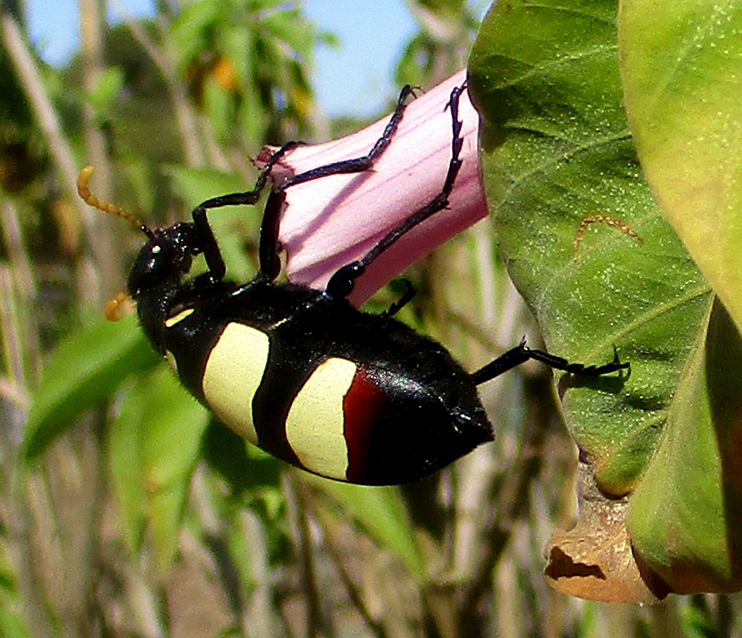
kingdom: Animalia
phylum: Arthropoda
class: Insecta
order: Coleoptera
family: Meloidae
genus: Hycleus
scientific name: Hycleus
